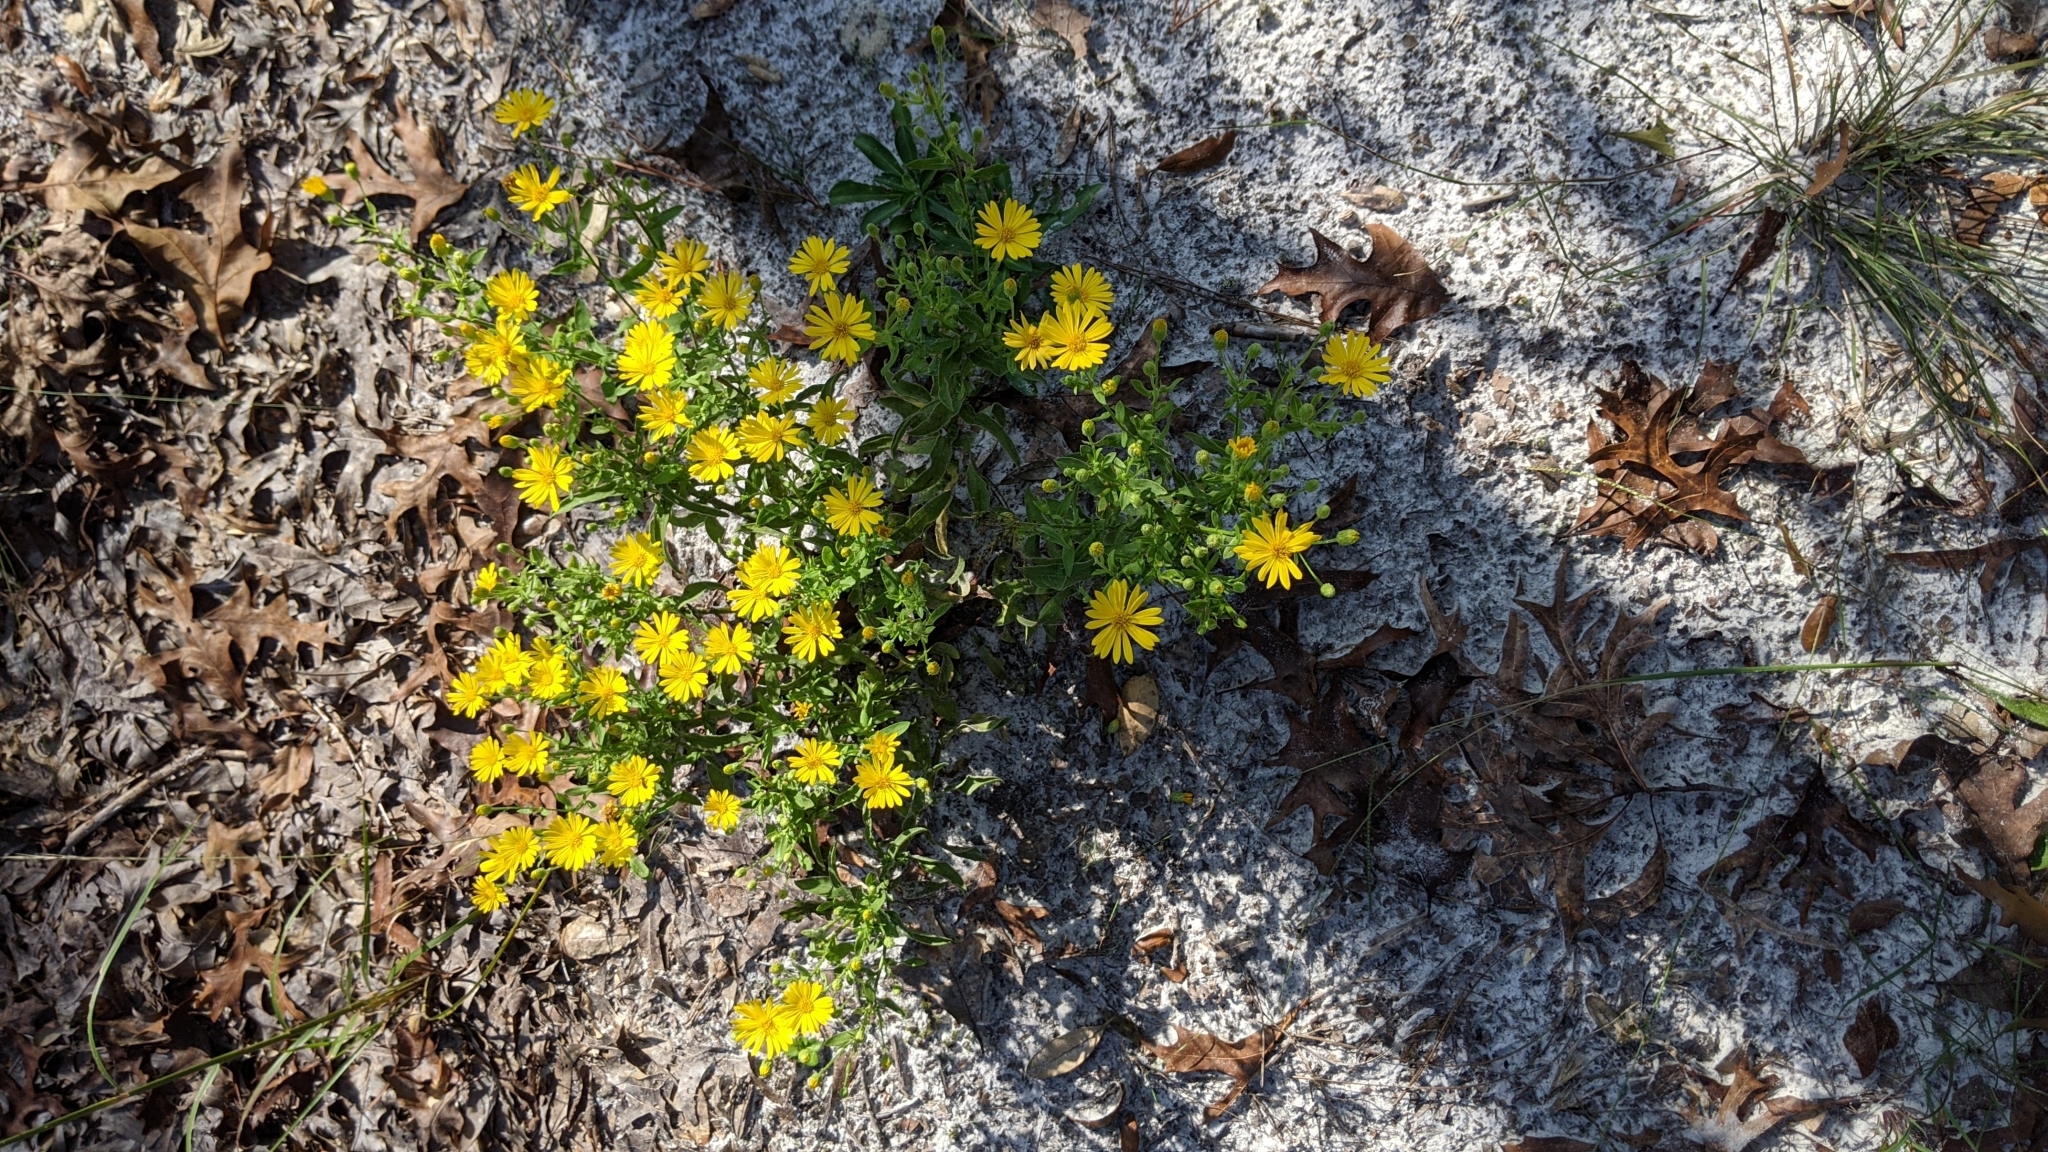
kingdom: Plantae
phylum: Tracheophyta
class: Magnoliopsida
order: Asterales
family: Asteraceae
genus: Chrysopsis
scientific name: Chrysopsis scabrella
